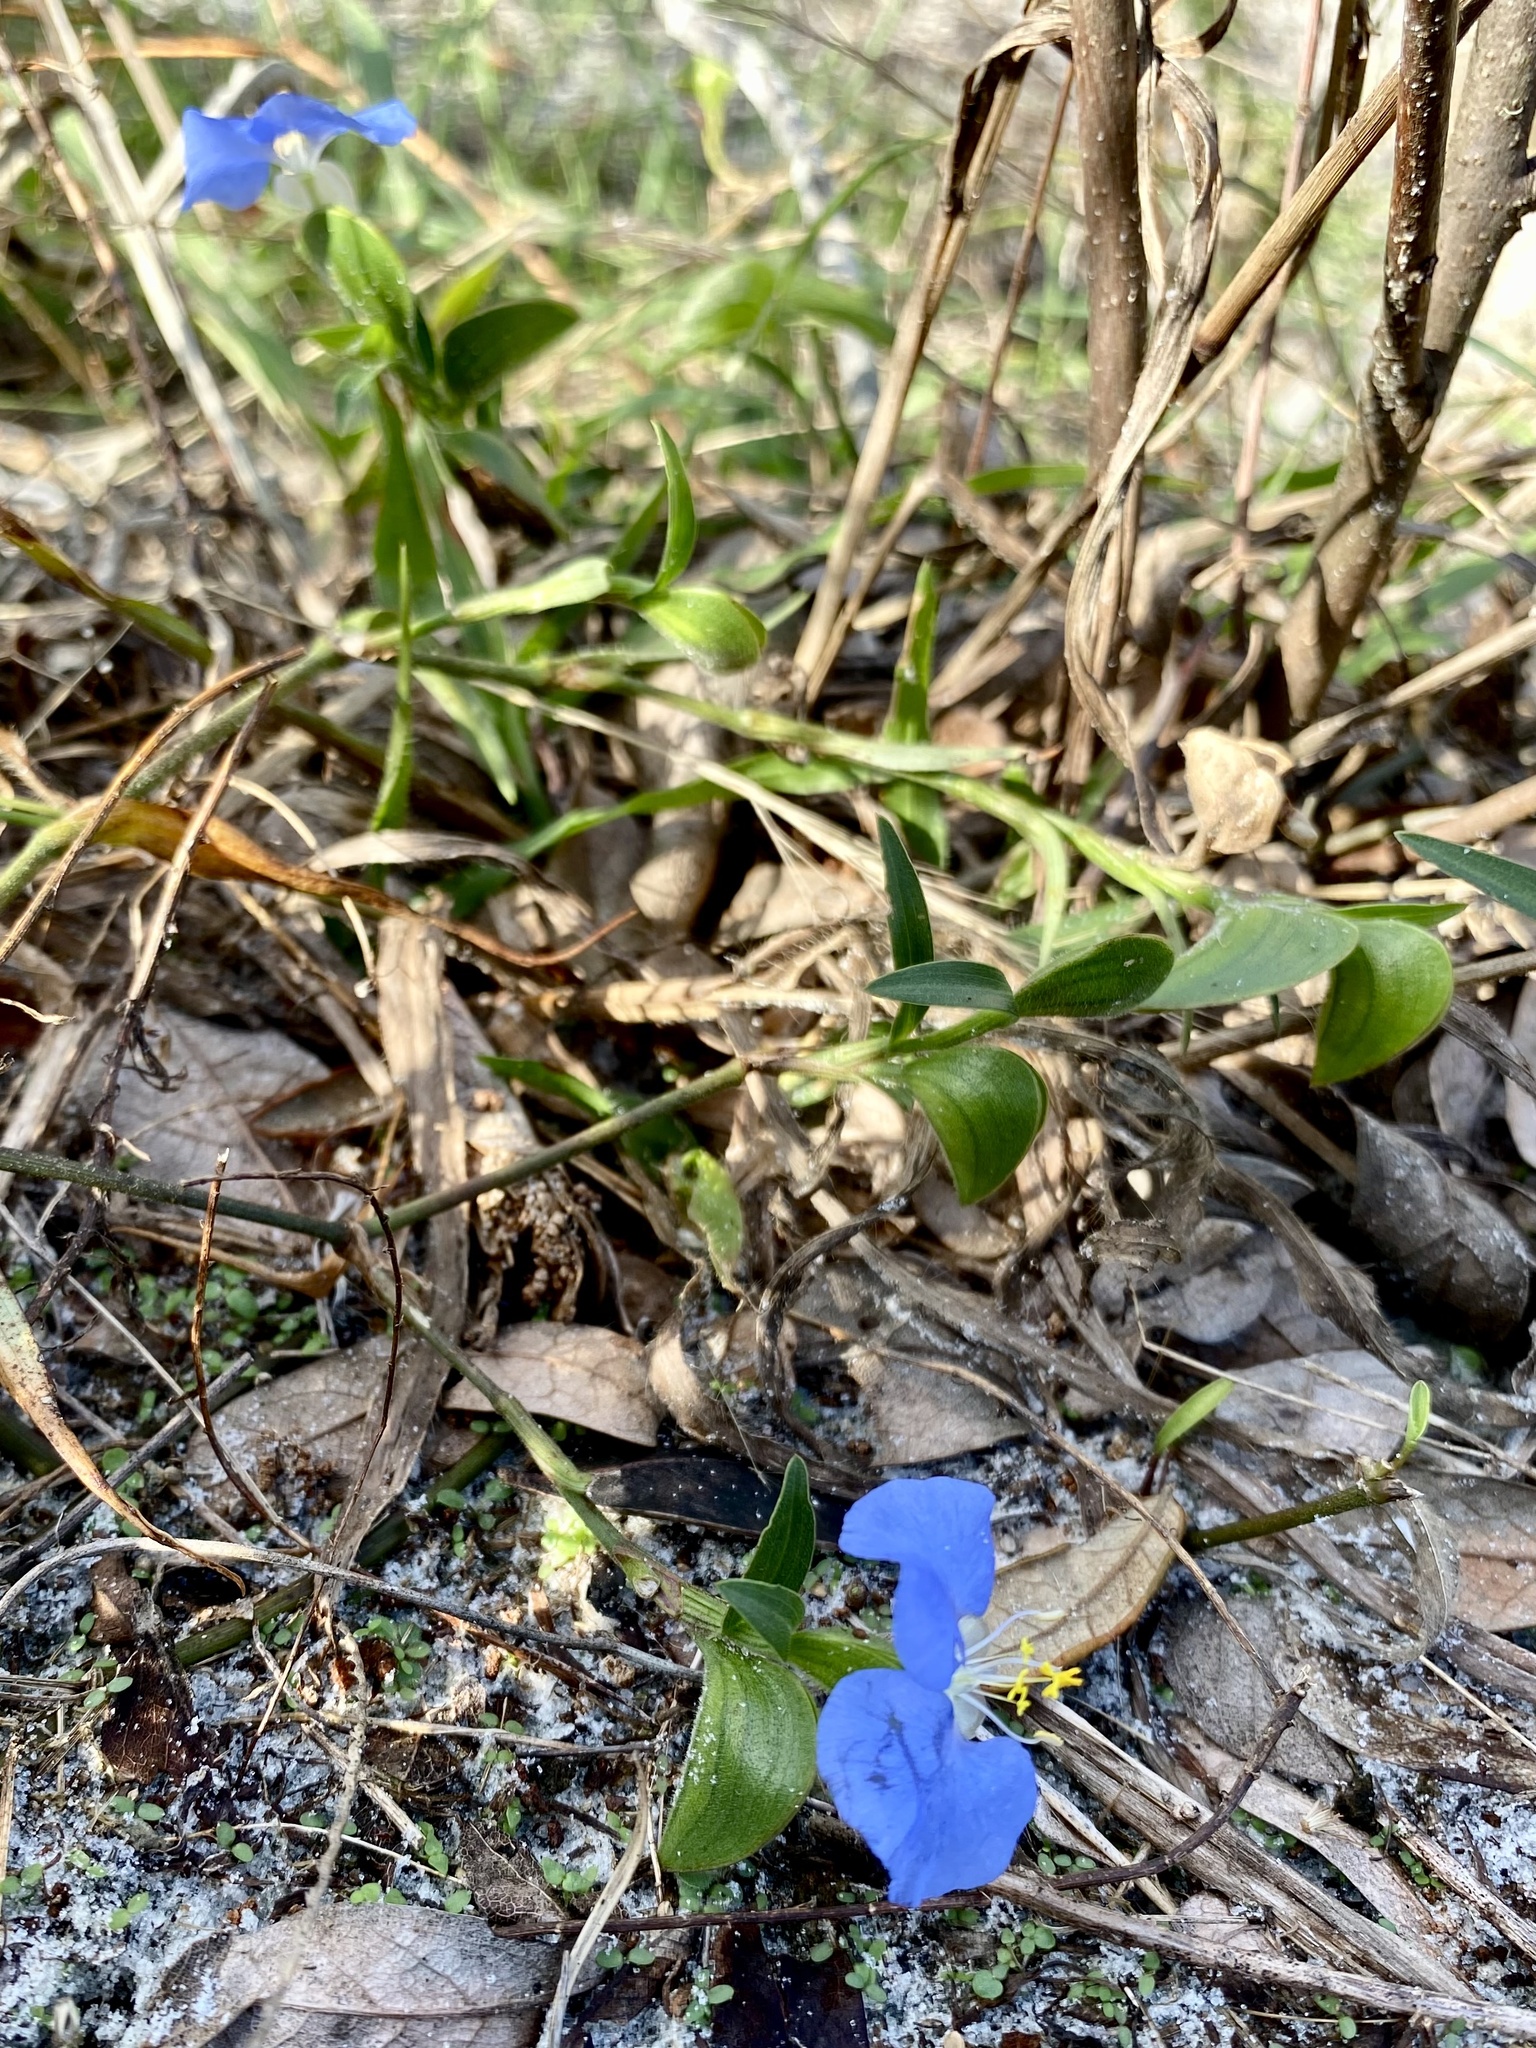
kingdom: Plantae
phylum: Tracheophyta
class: Liliopsida
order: Commelinales
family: Commelinaceae
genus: Commelina
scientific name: Commelina erecta
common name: Blousel blommetjie
